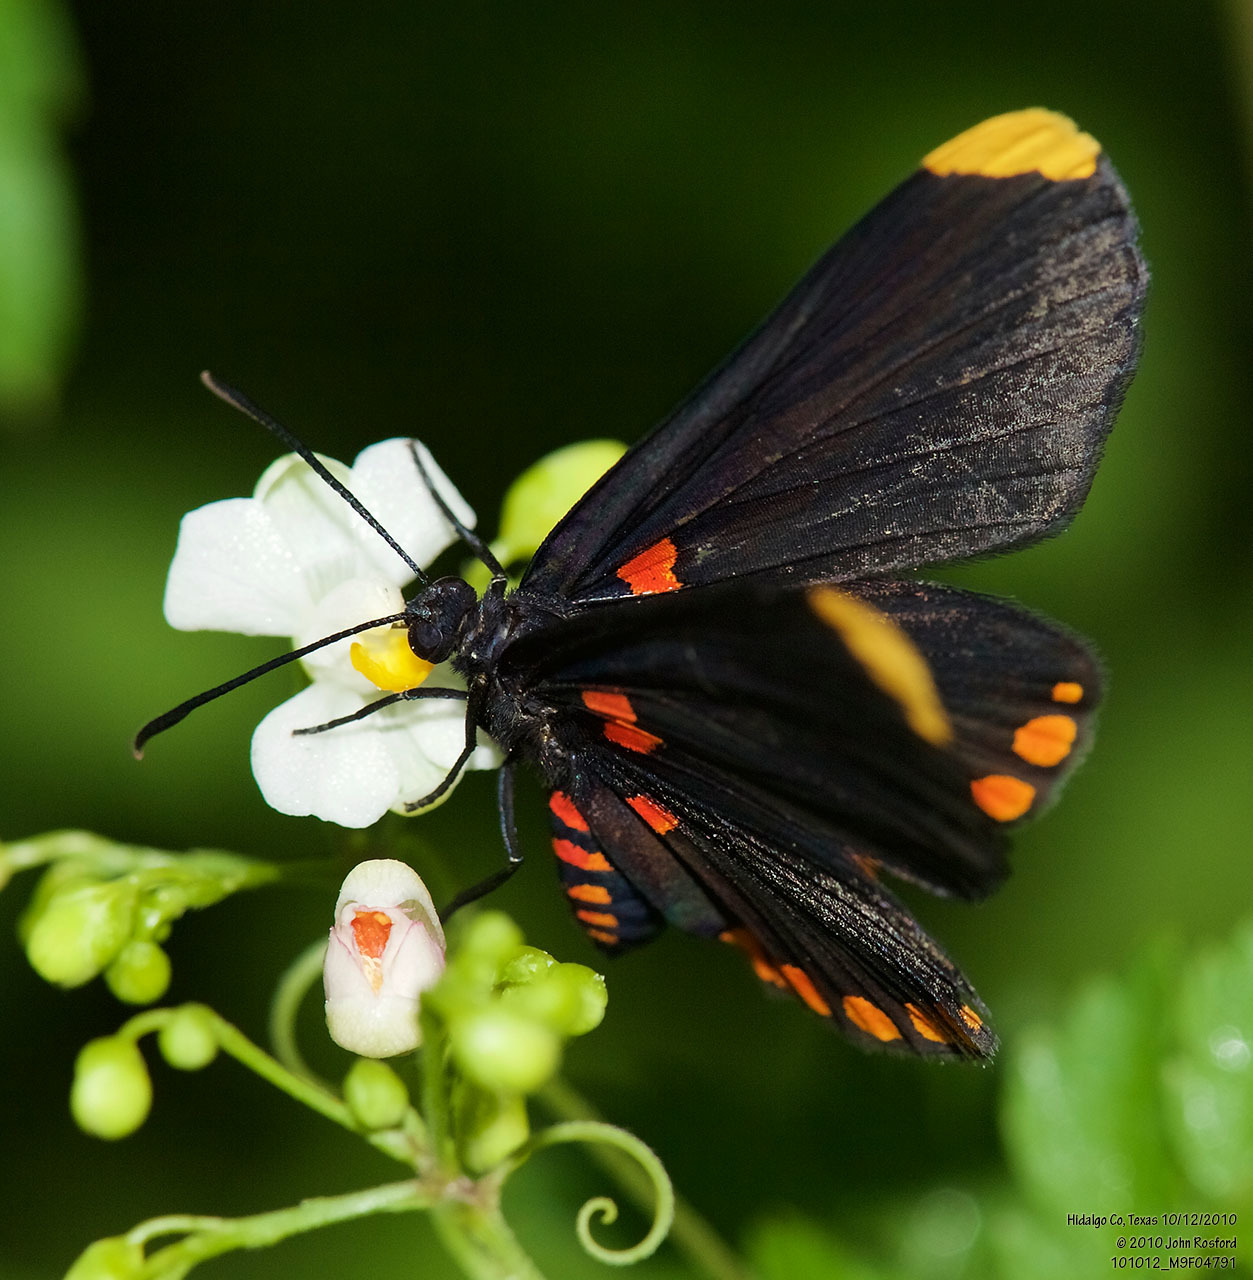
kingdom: Animalia
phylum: Arthropoda
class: Insecta
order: Lepidoptera
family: Lycaenidae
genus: Melanis
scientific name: Melanis pixe
